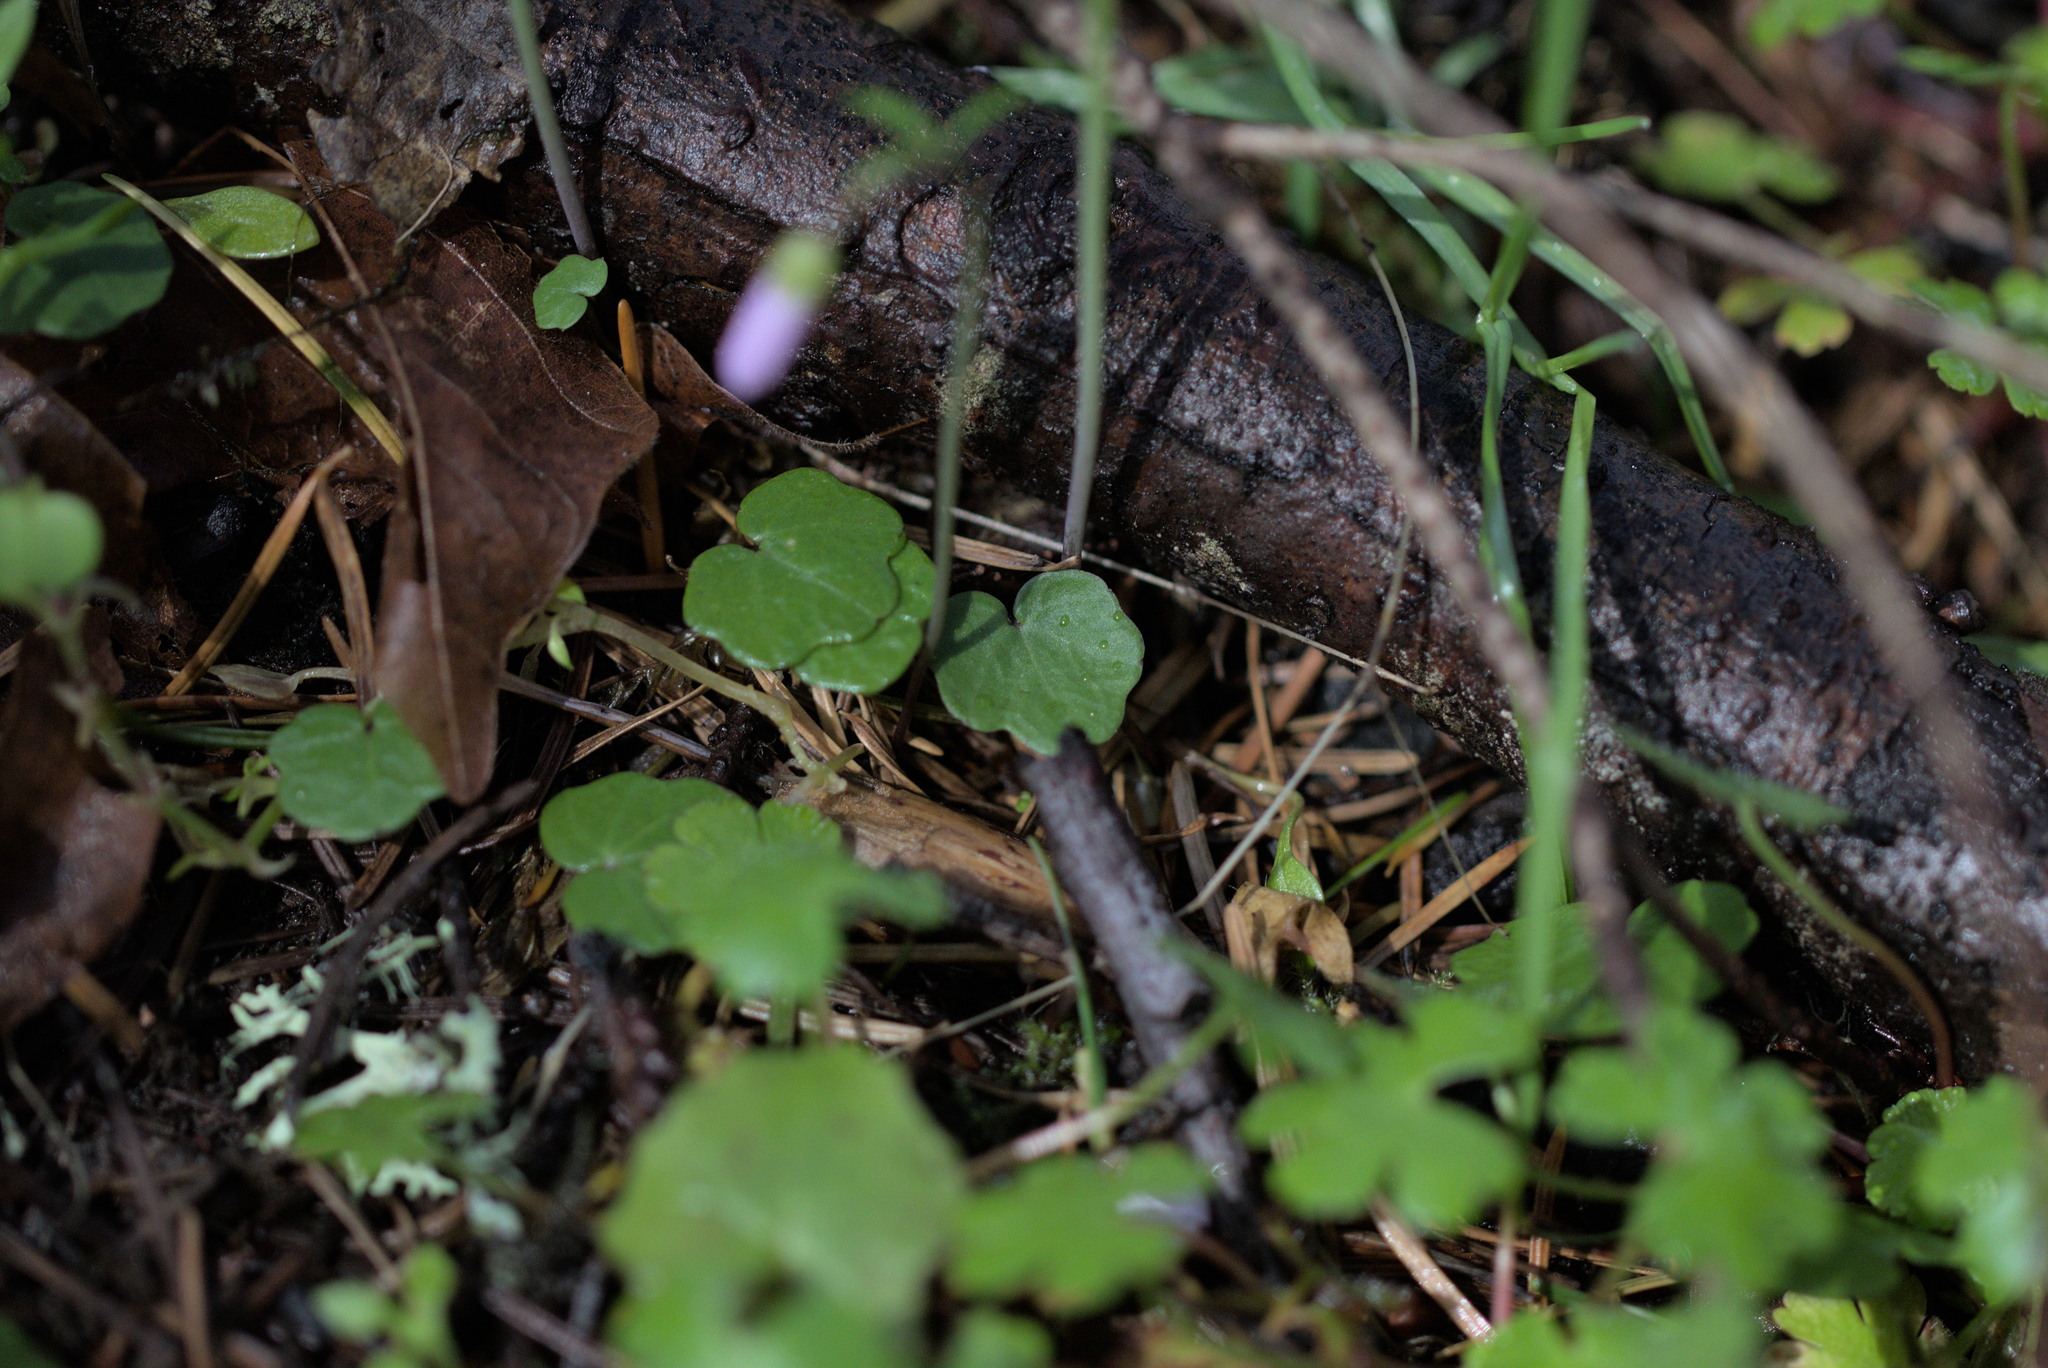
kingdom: Plantae
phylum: Tracheophyta
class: Magnoliopsida
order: Brassicales
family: Brassicaceae
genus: Cardamine
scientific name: Cardamine nuttallii
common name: Nuttall's toothwort
